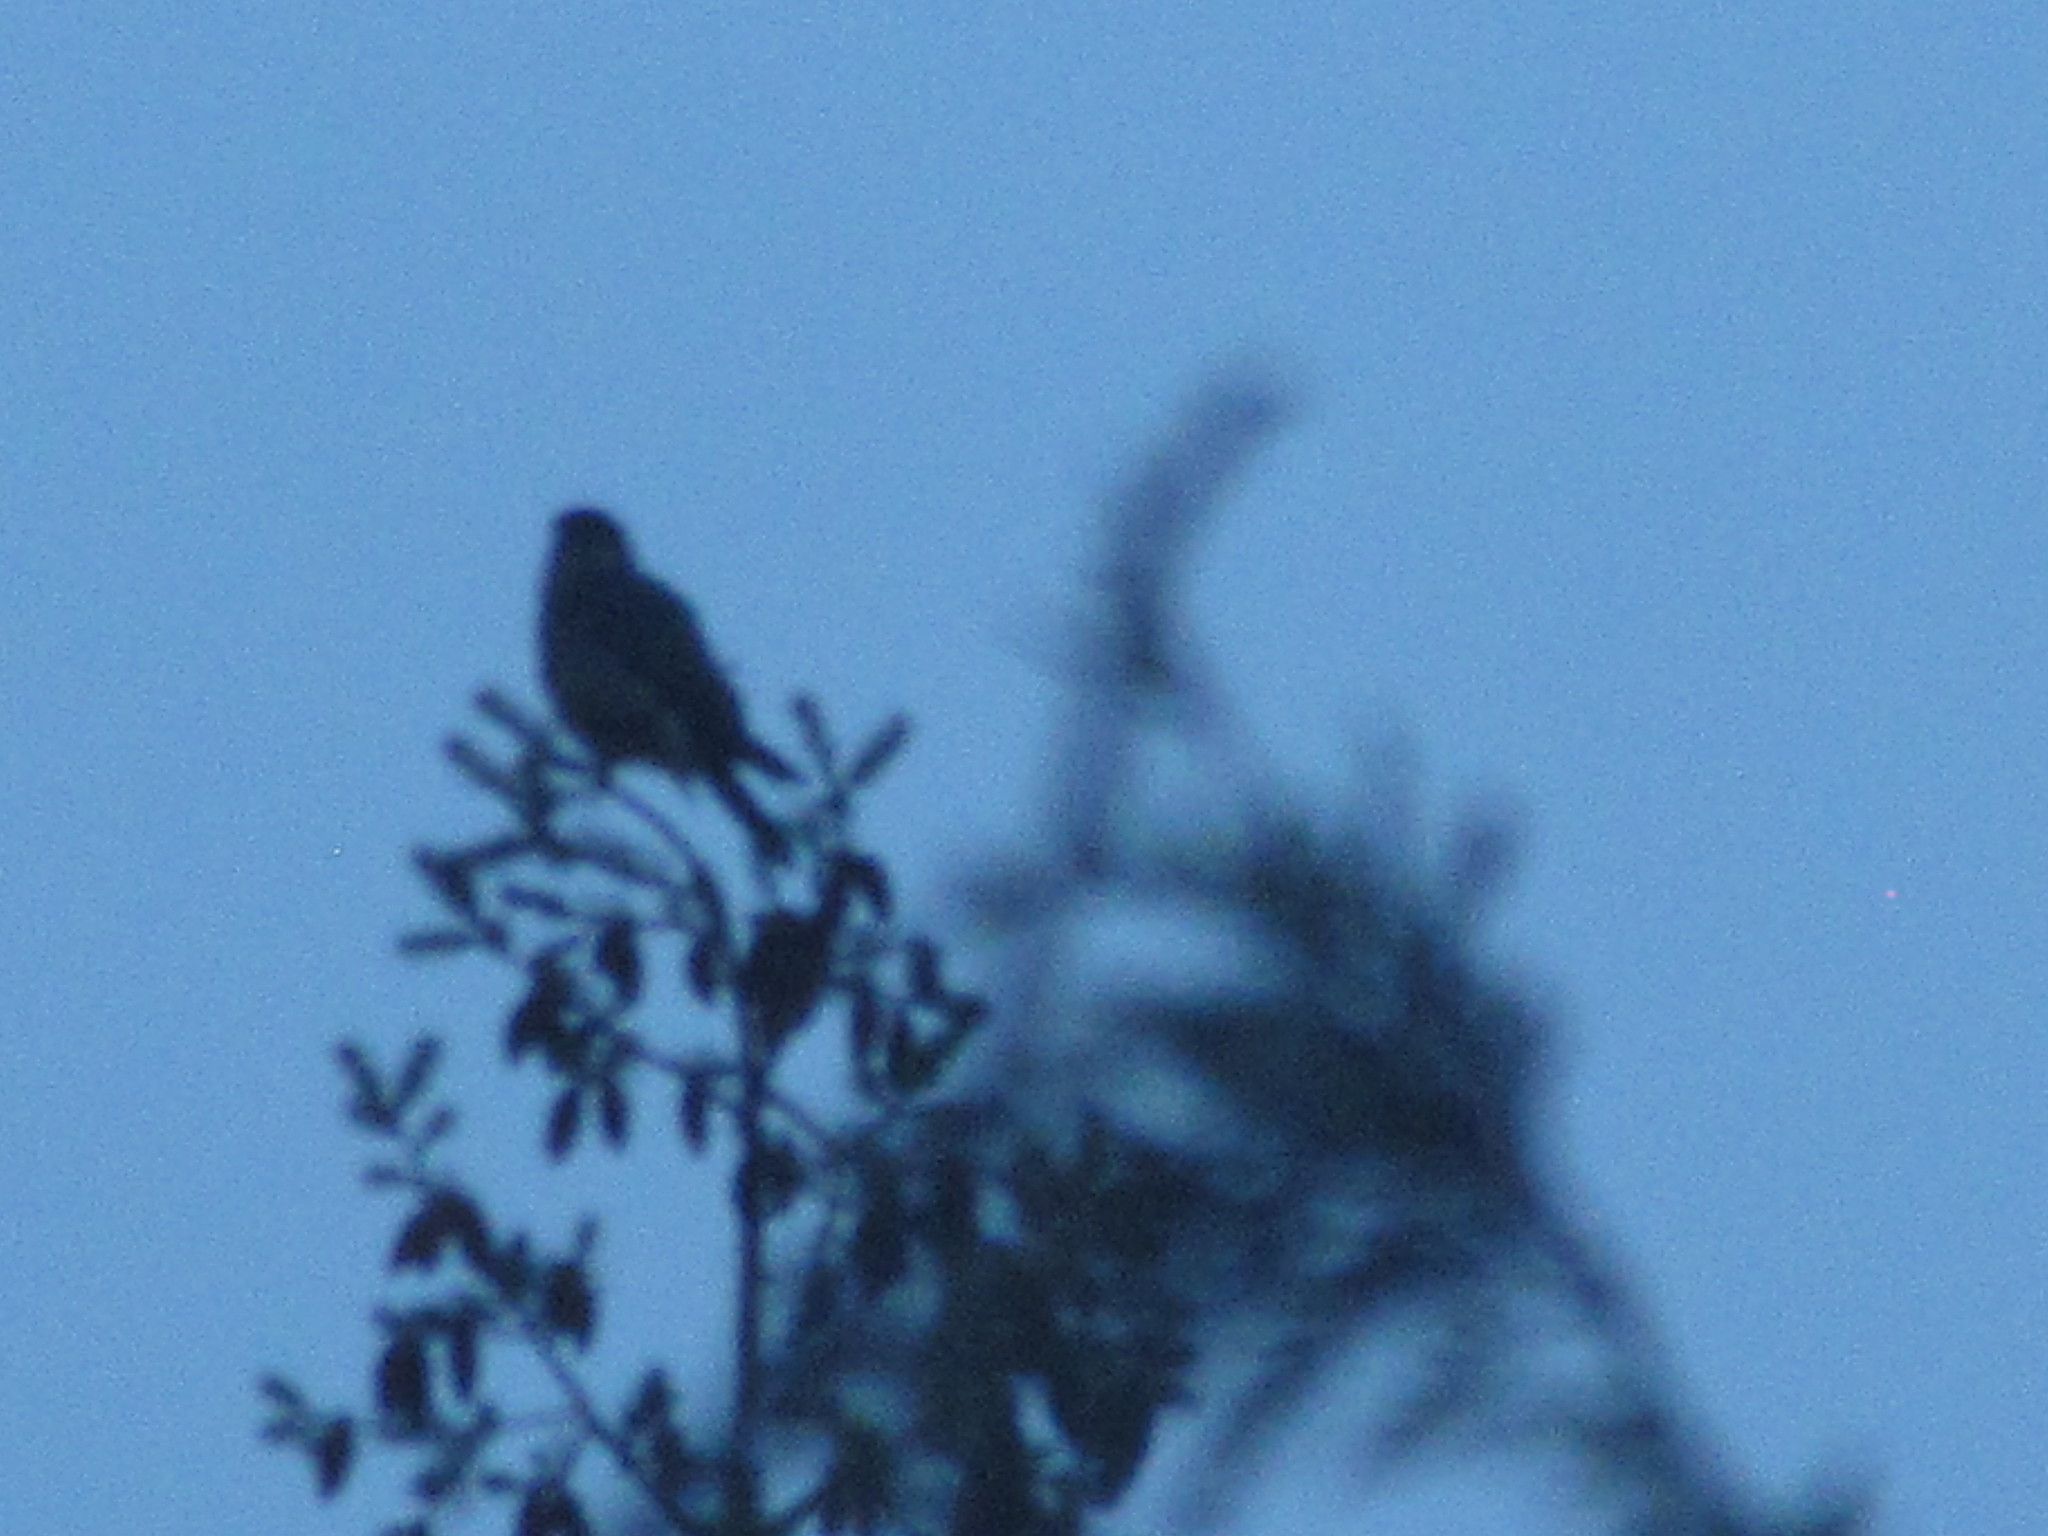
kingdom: Animalia
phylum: Chordata
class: Aves
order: Falconiformes
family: Falconidae
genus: Falco
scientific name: Falco columbarius
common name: Merlin
